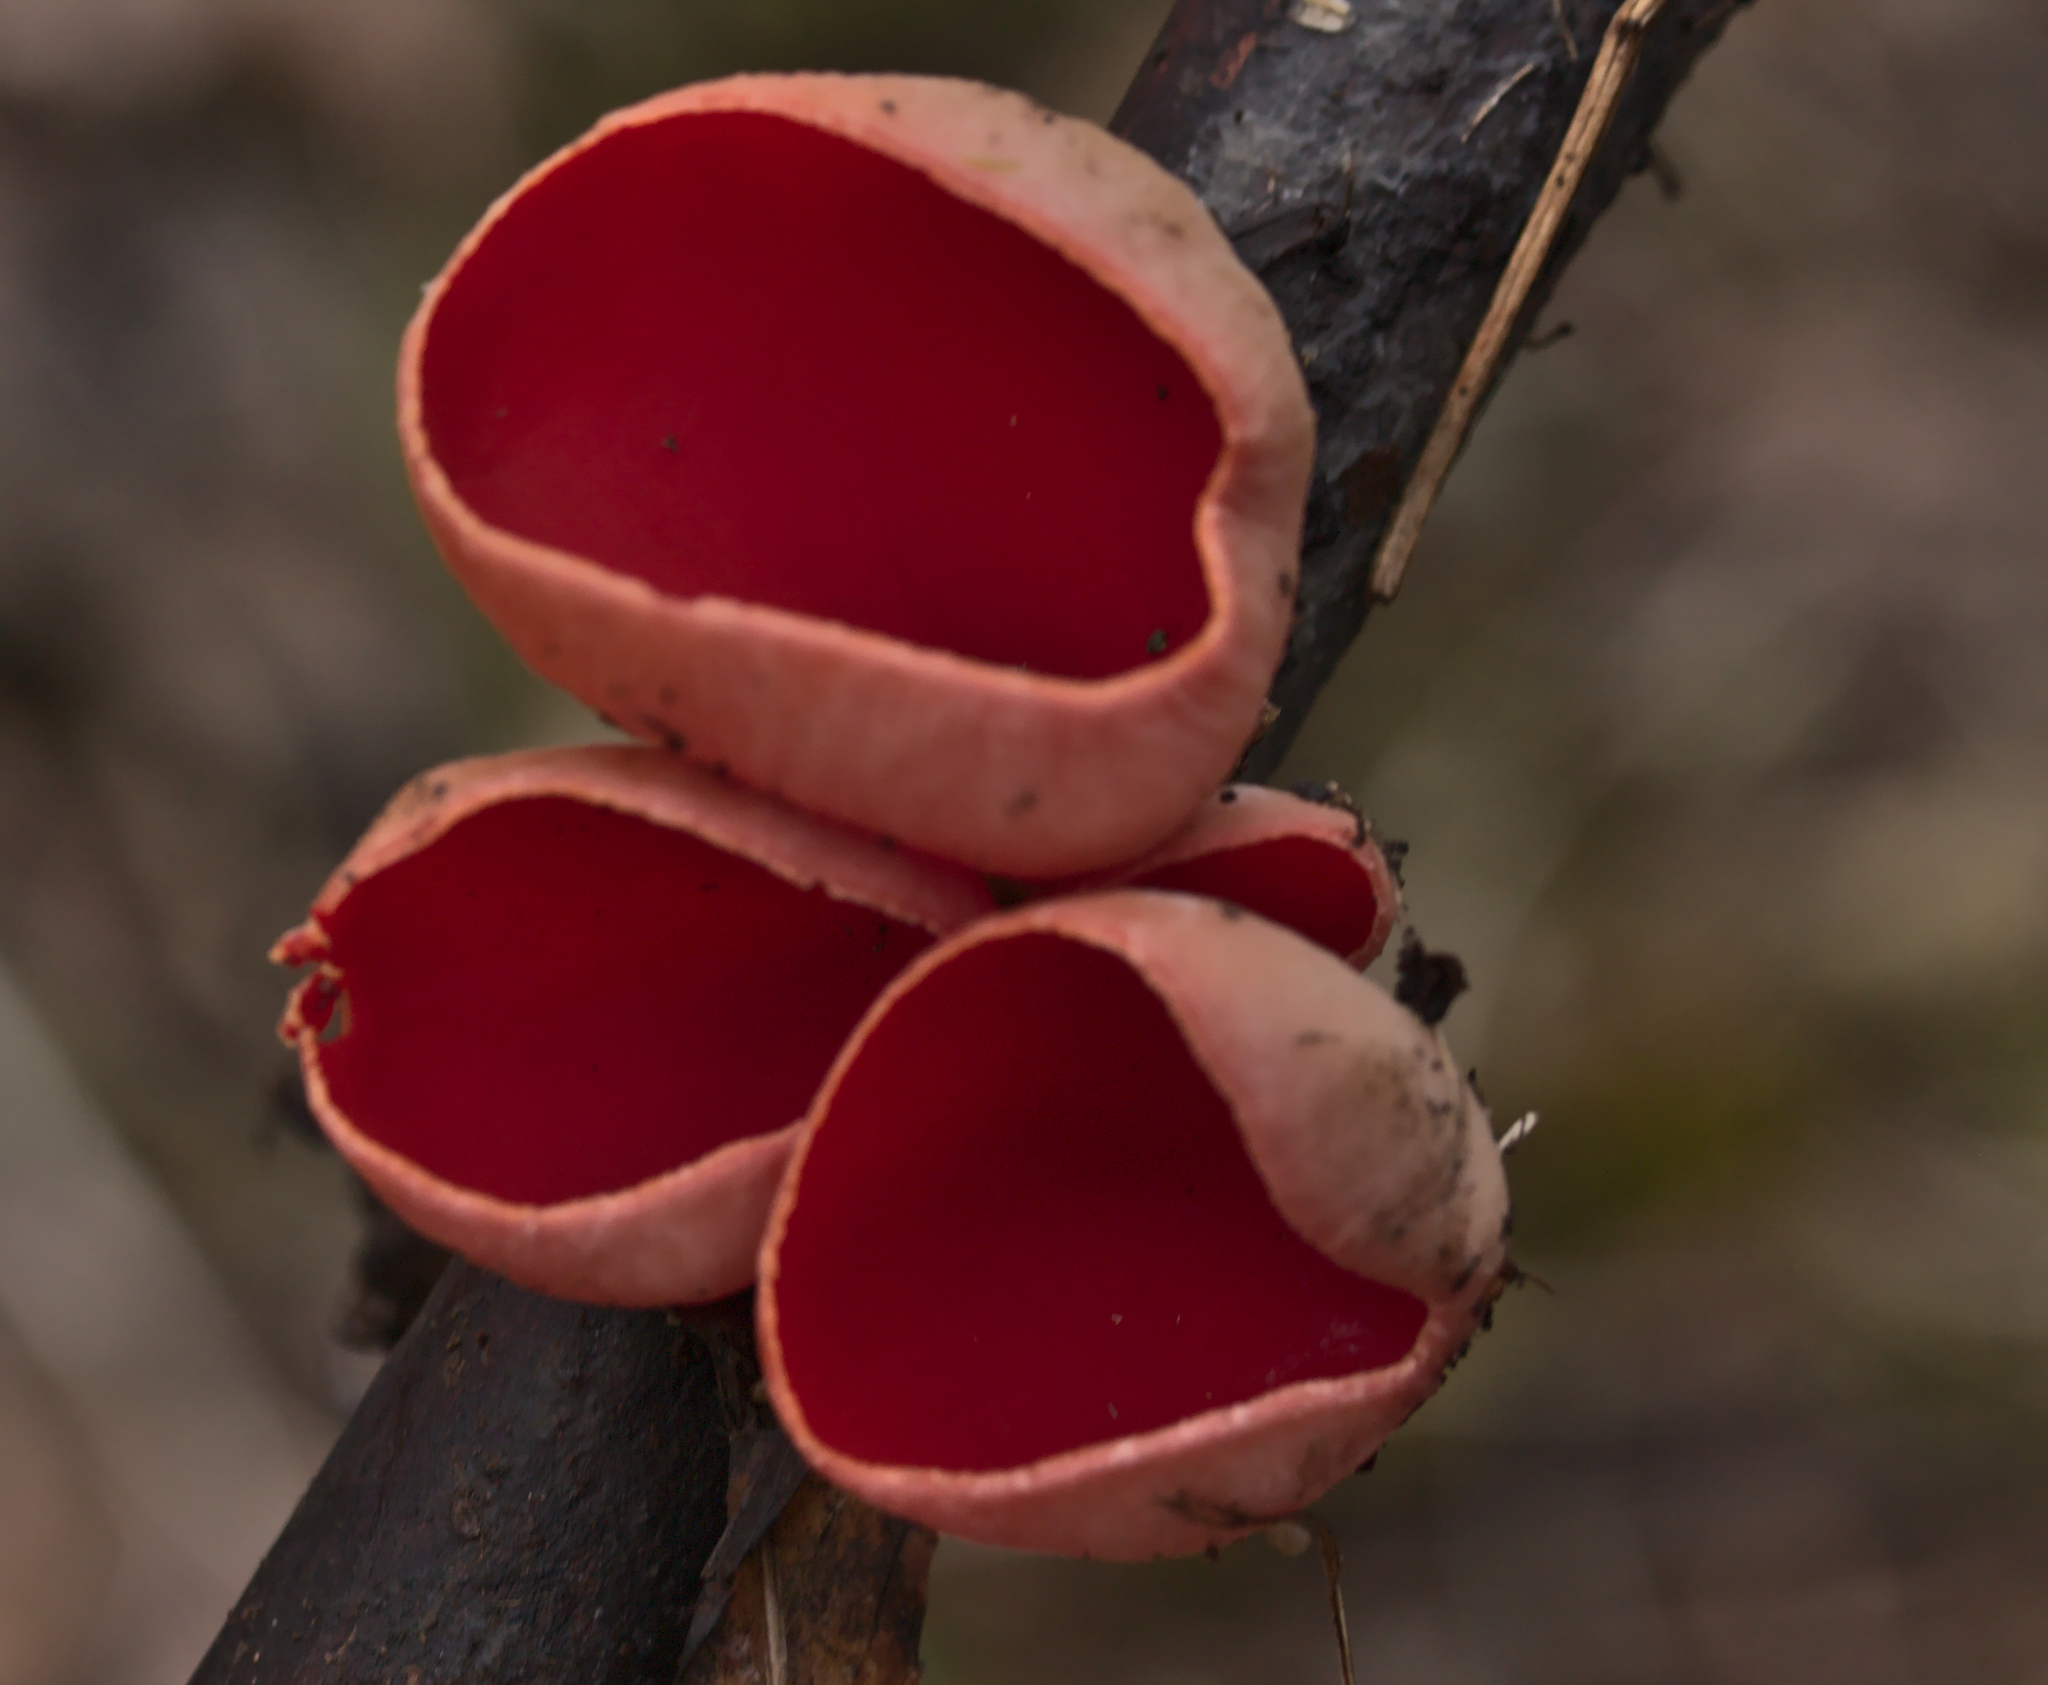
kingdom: Fungi
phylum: Ascomycota
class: Pezizomycetes
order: Pezizales
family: Sarcoscyphaceae
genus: Sarcoscypha
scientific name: Sarcoscypha
